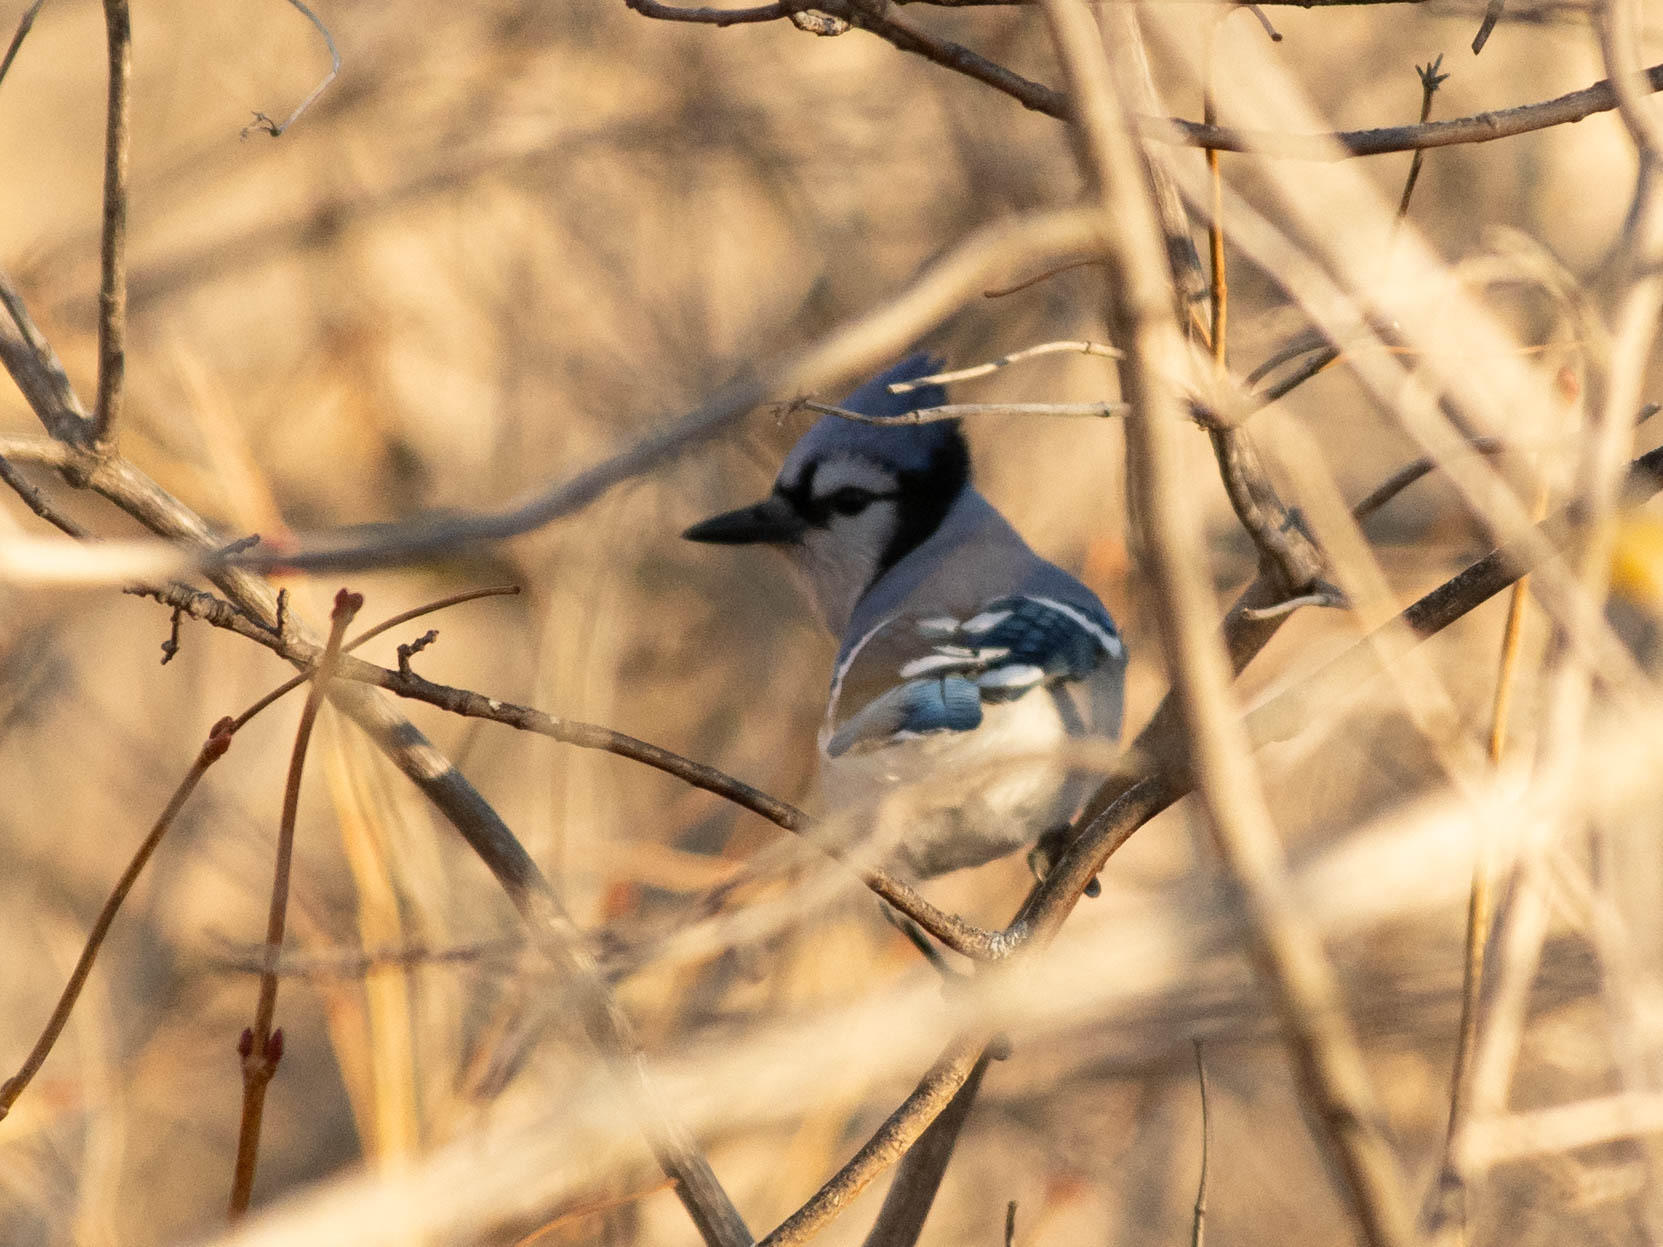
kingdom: Animalia
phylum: Chordata
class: Aves
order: Passeriformes
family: Corvidae
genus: Cyanocitta
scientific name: Cyanocitta cristata
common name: Blue jay
